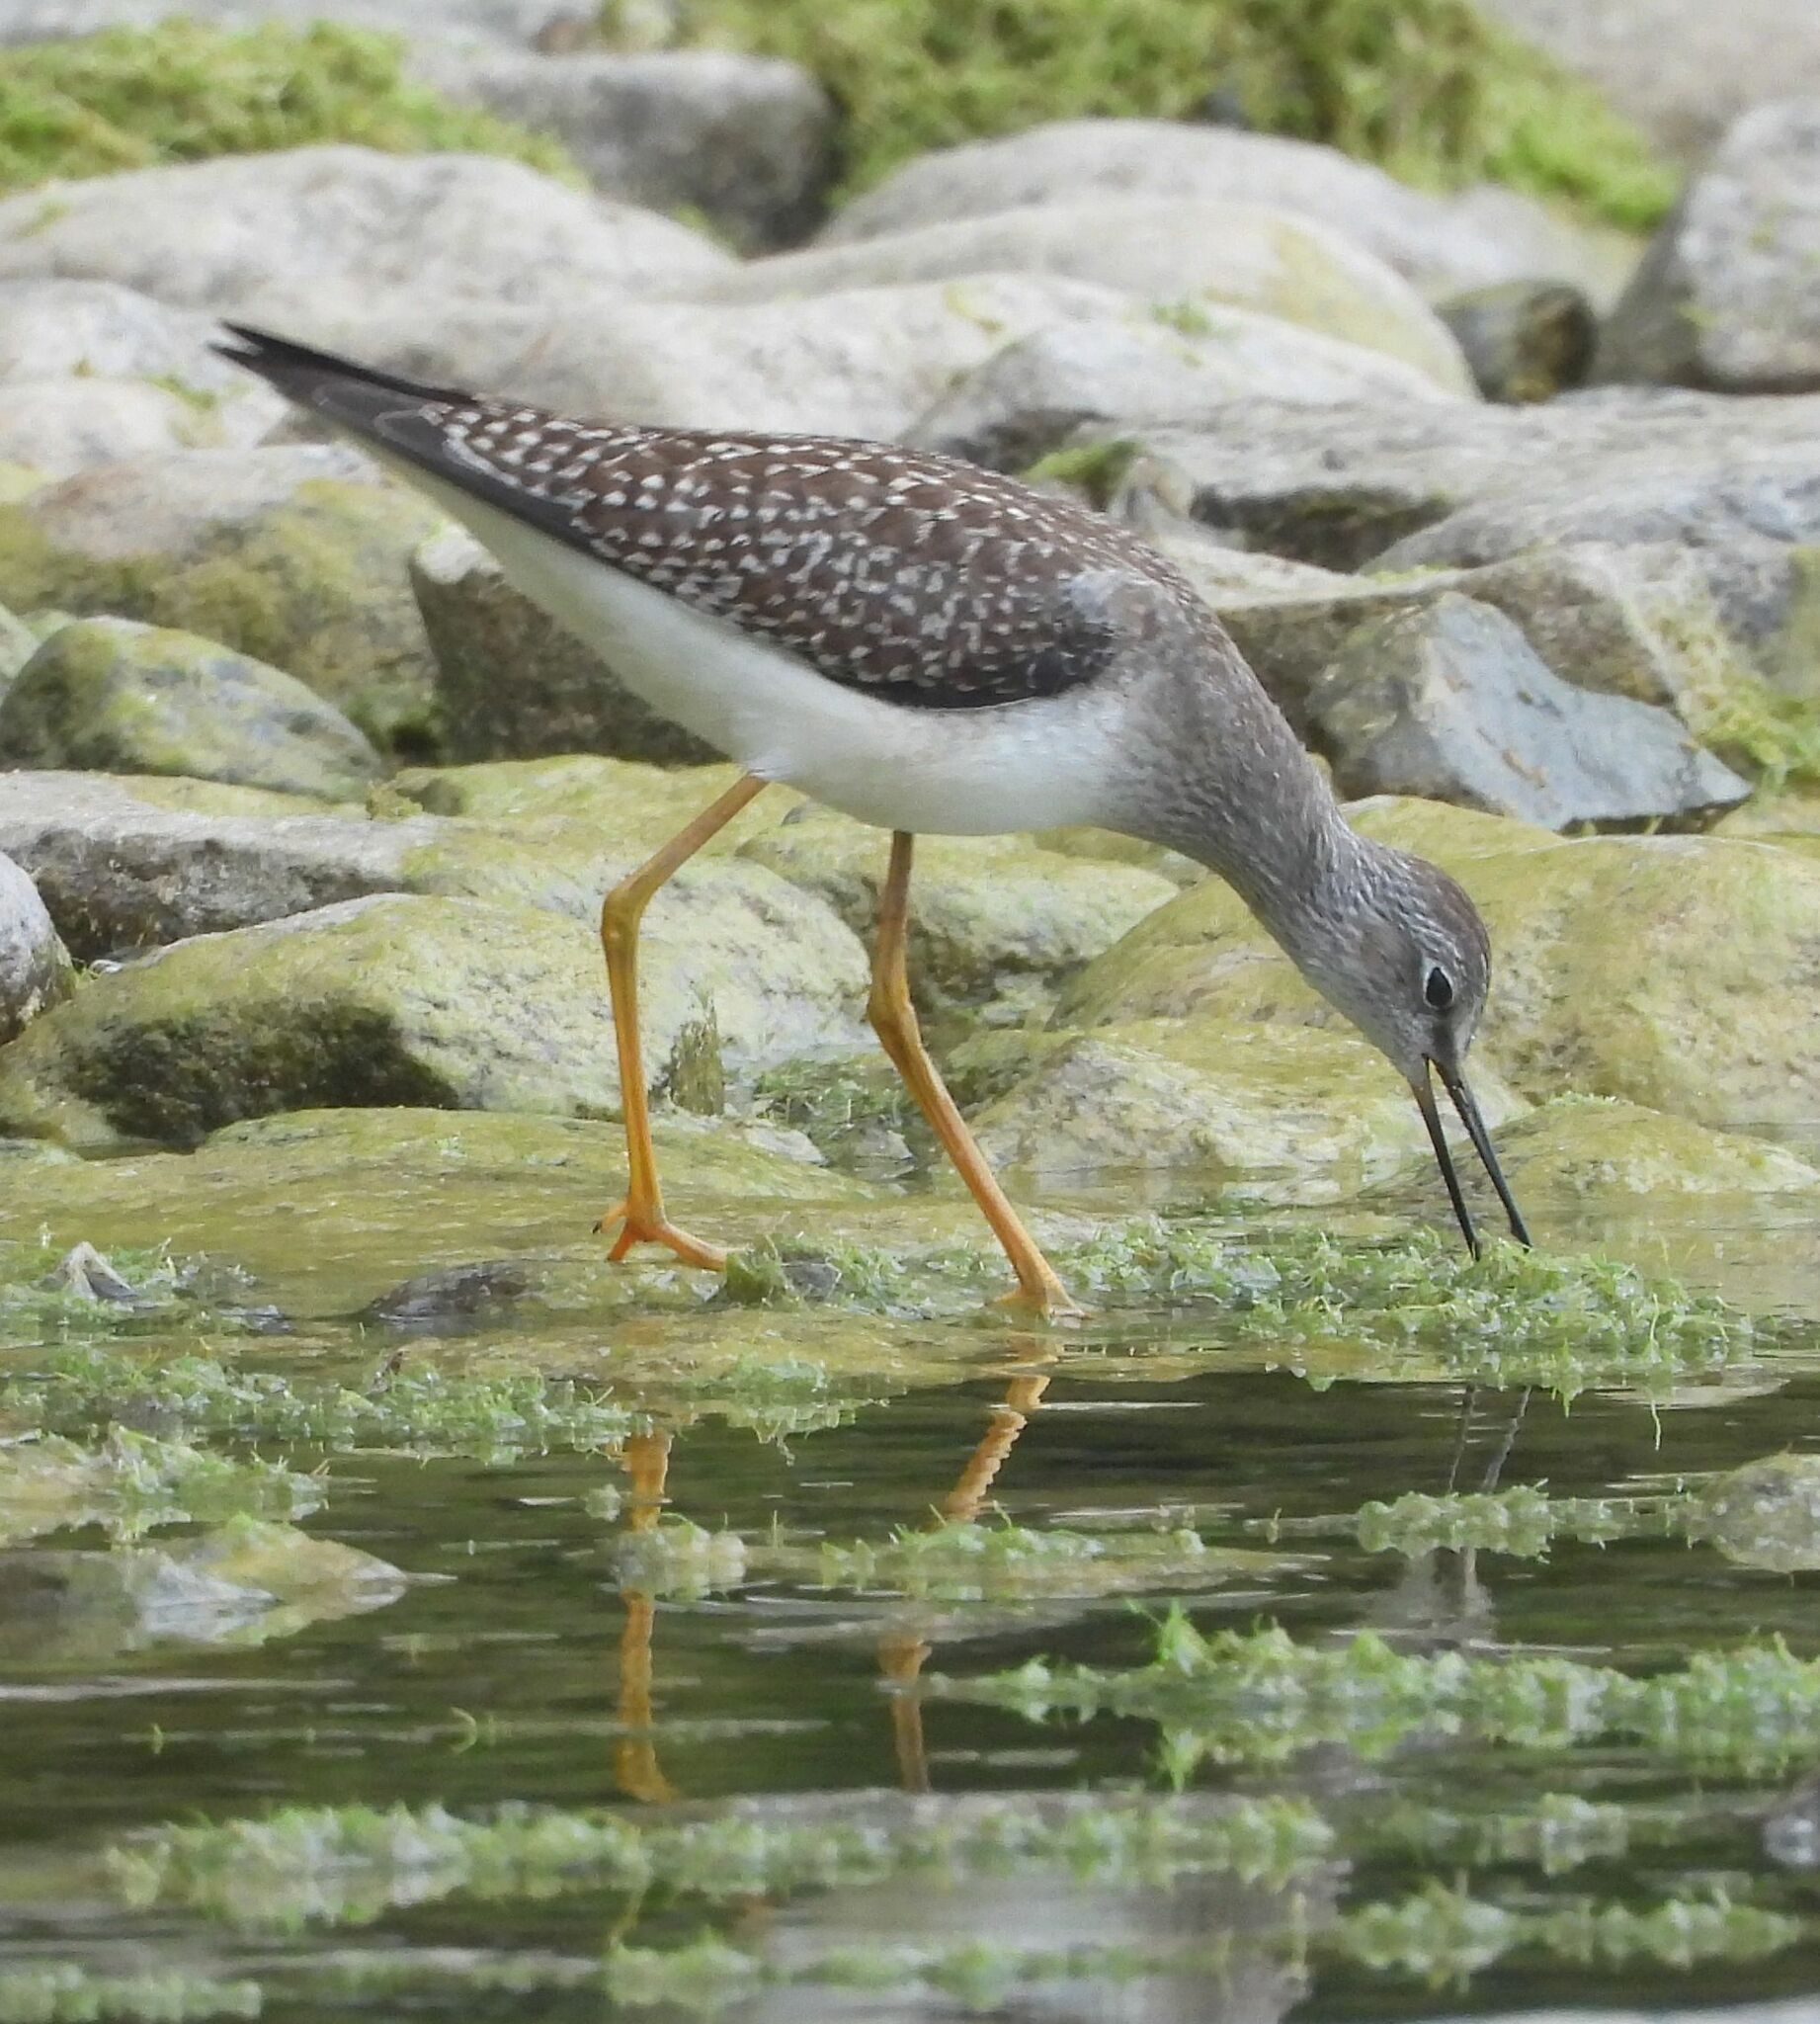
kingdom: Animalia
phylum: Chordata
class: Aves
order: Charadriiformes
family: Scolopacidae
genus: Tringa
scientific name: Tringa flavipes
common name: Lesser yellowlegs
